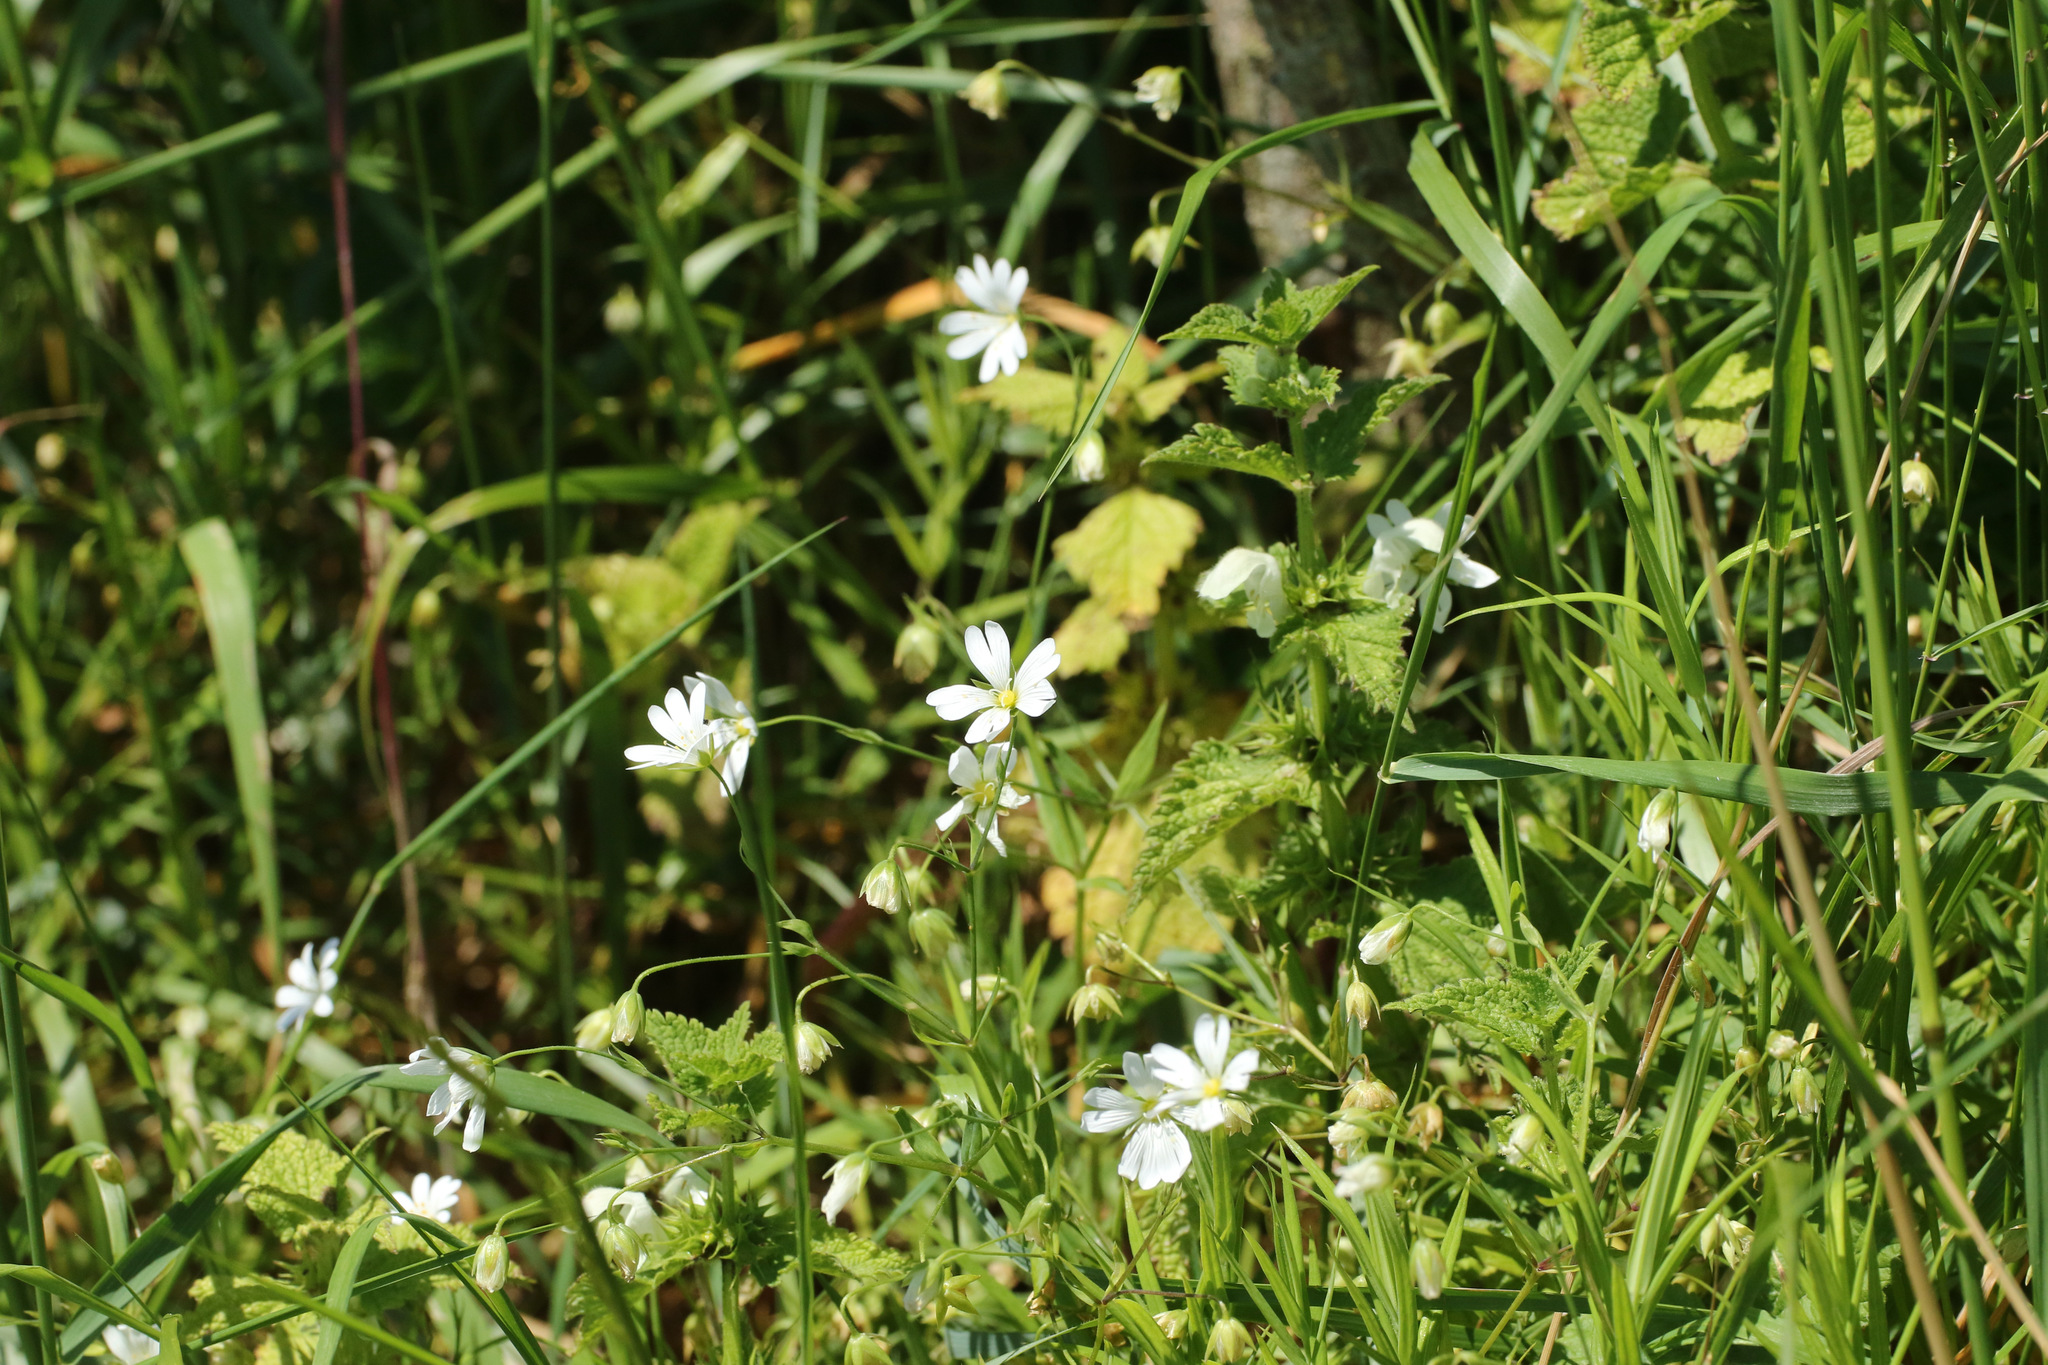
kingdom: Plantae
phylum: Tracheophyta
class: Magnoliopsida
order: Caryophyllales
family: Caryophyllaceae
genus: Rabelera
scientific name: Rabelera holostea
